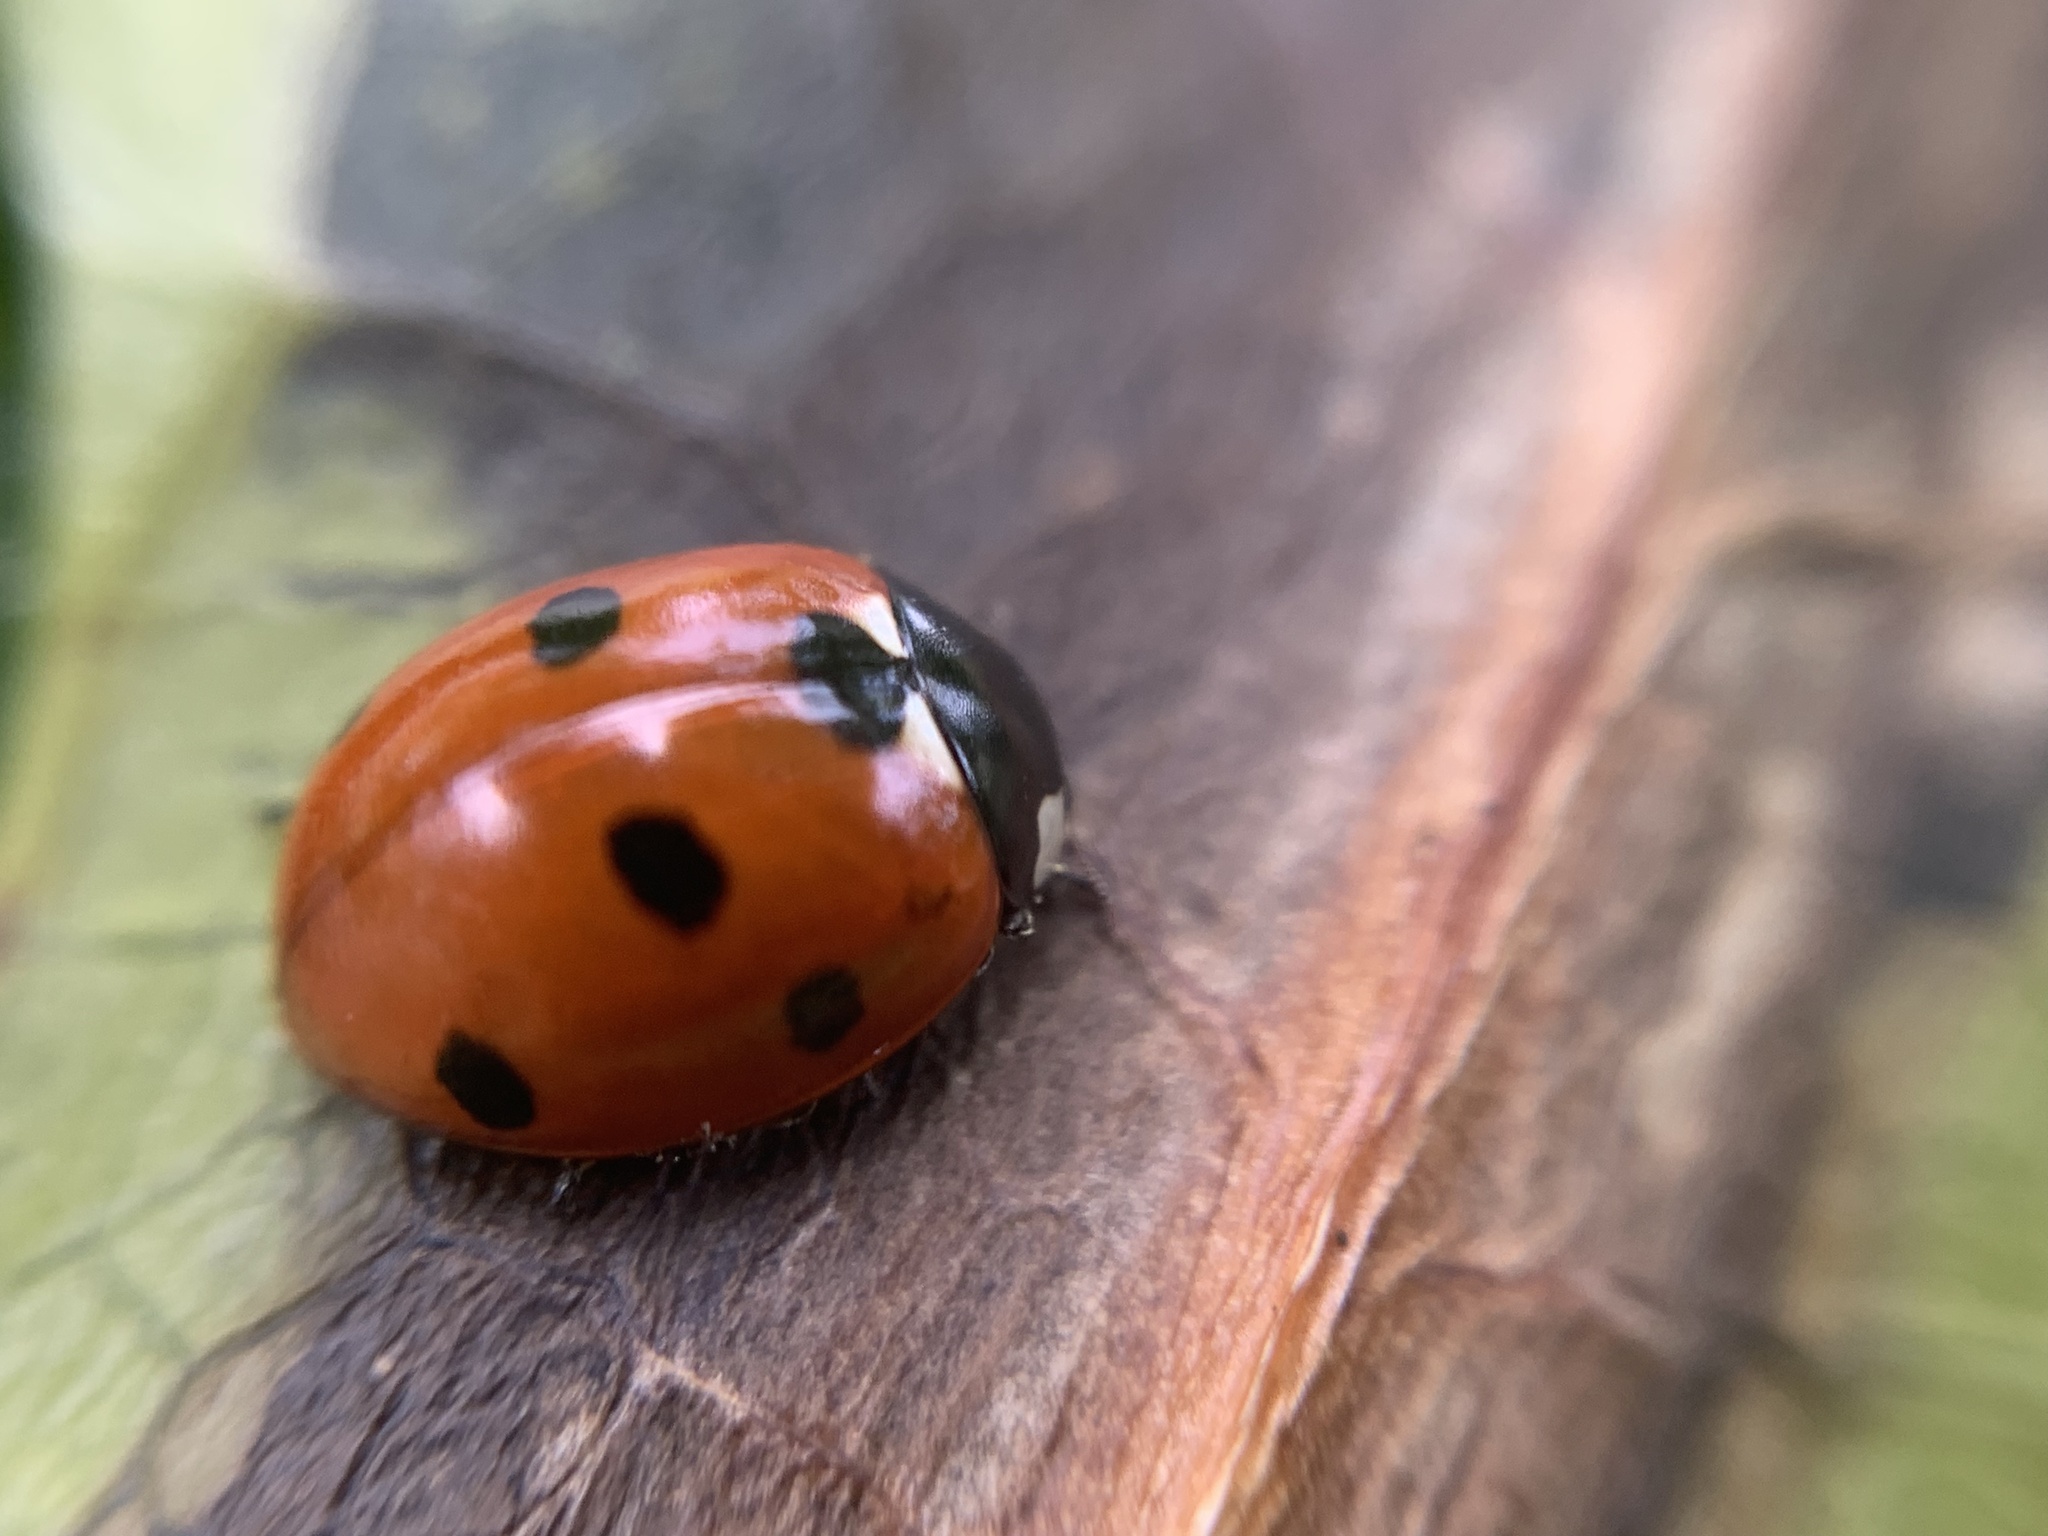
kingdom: Animalia
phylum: Arthropoda
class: Insecta
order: Coleoptera
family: Coccinellidae
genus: Coccinella
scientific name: Coccinella septempunctata
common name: Sevenspotted lady beetle
